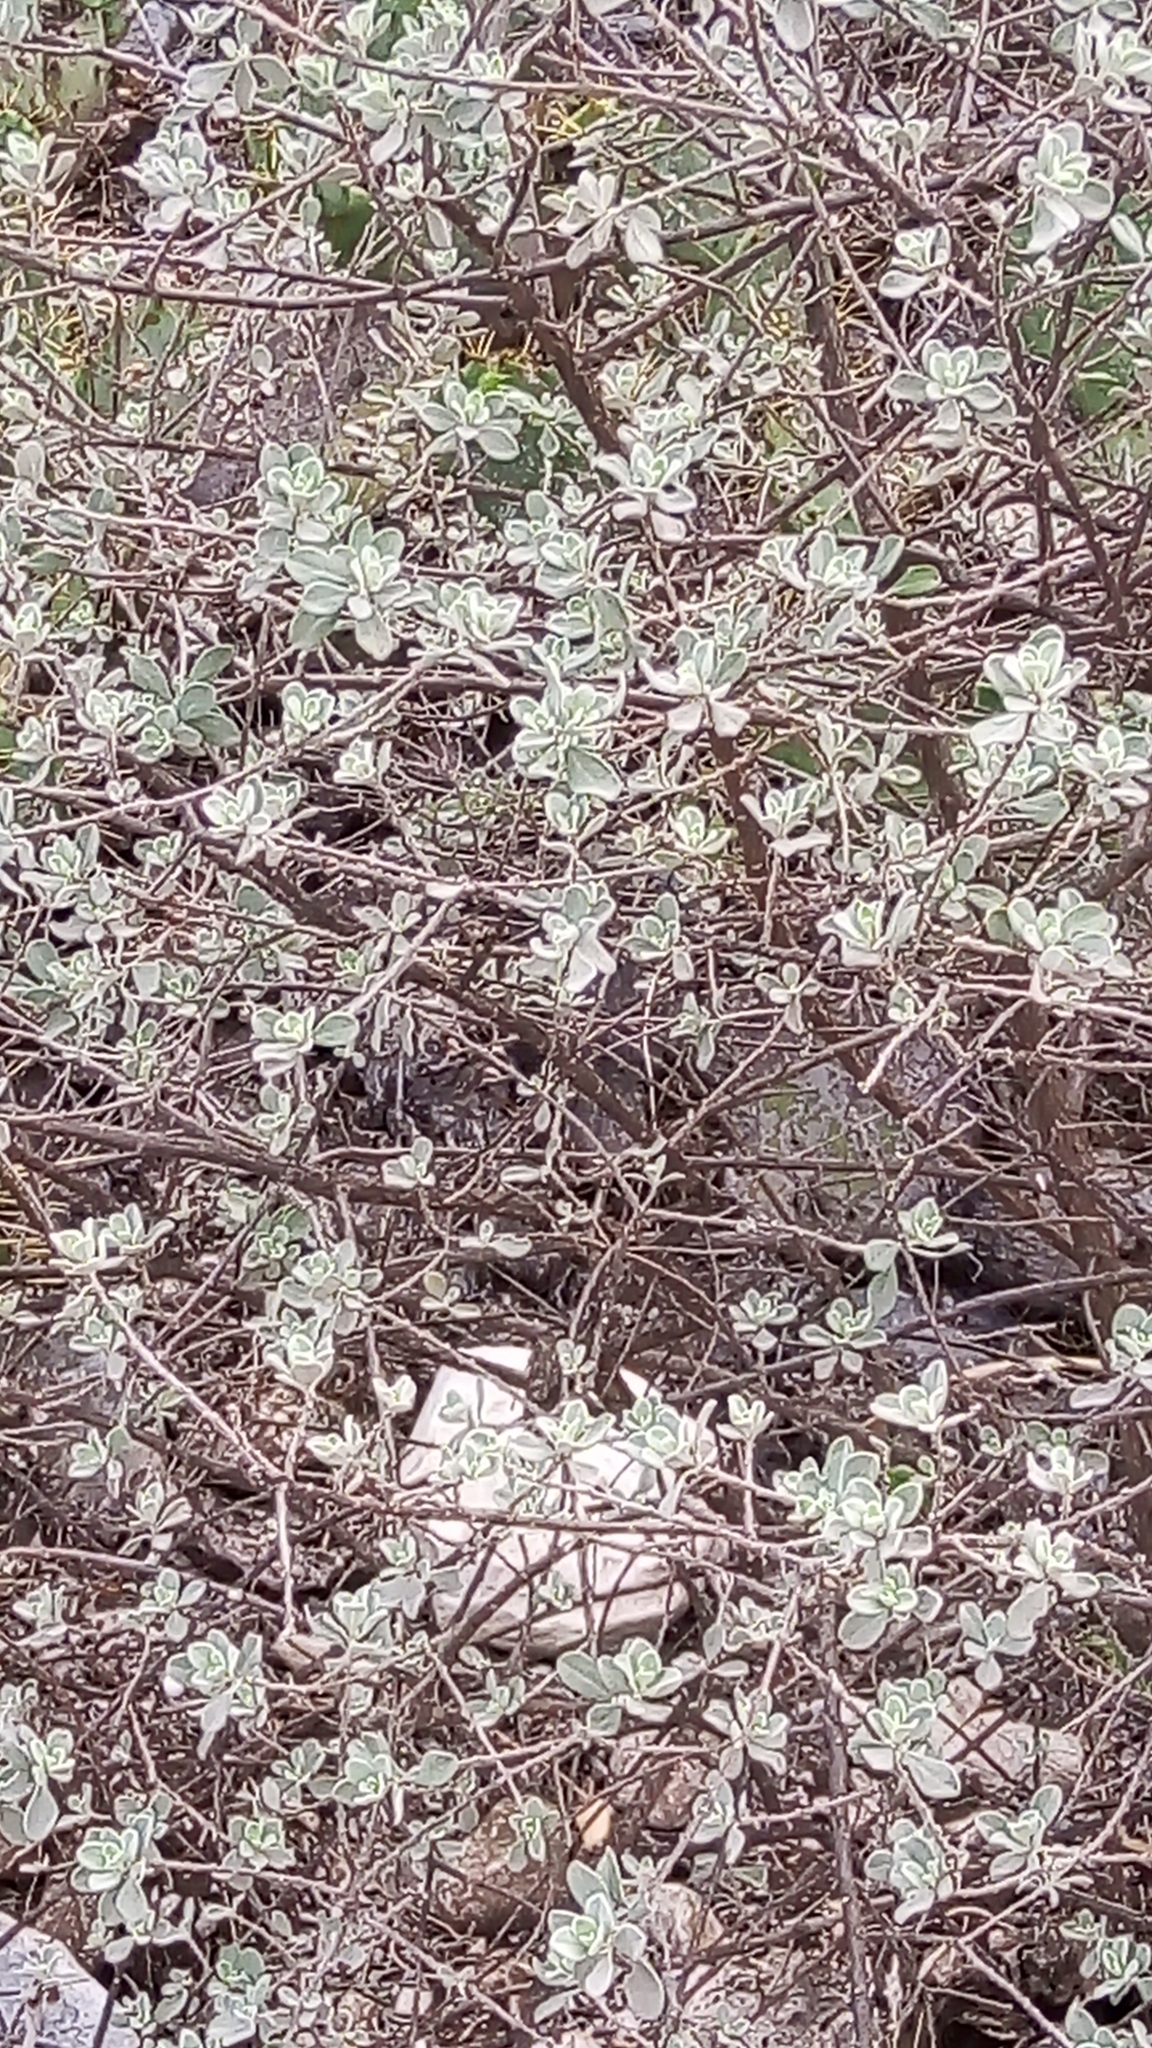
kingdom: Plantae
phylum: Tracheophyta
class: Magnoliopsida
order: Lamiales
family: Scrophulariaceae
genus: Leucophyllum
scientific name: Leucophyllum frutescens
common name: Texas silverleaf
